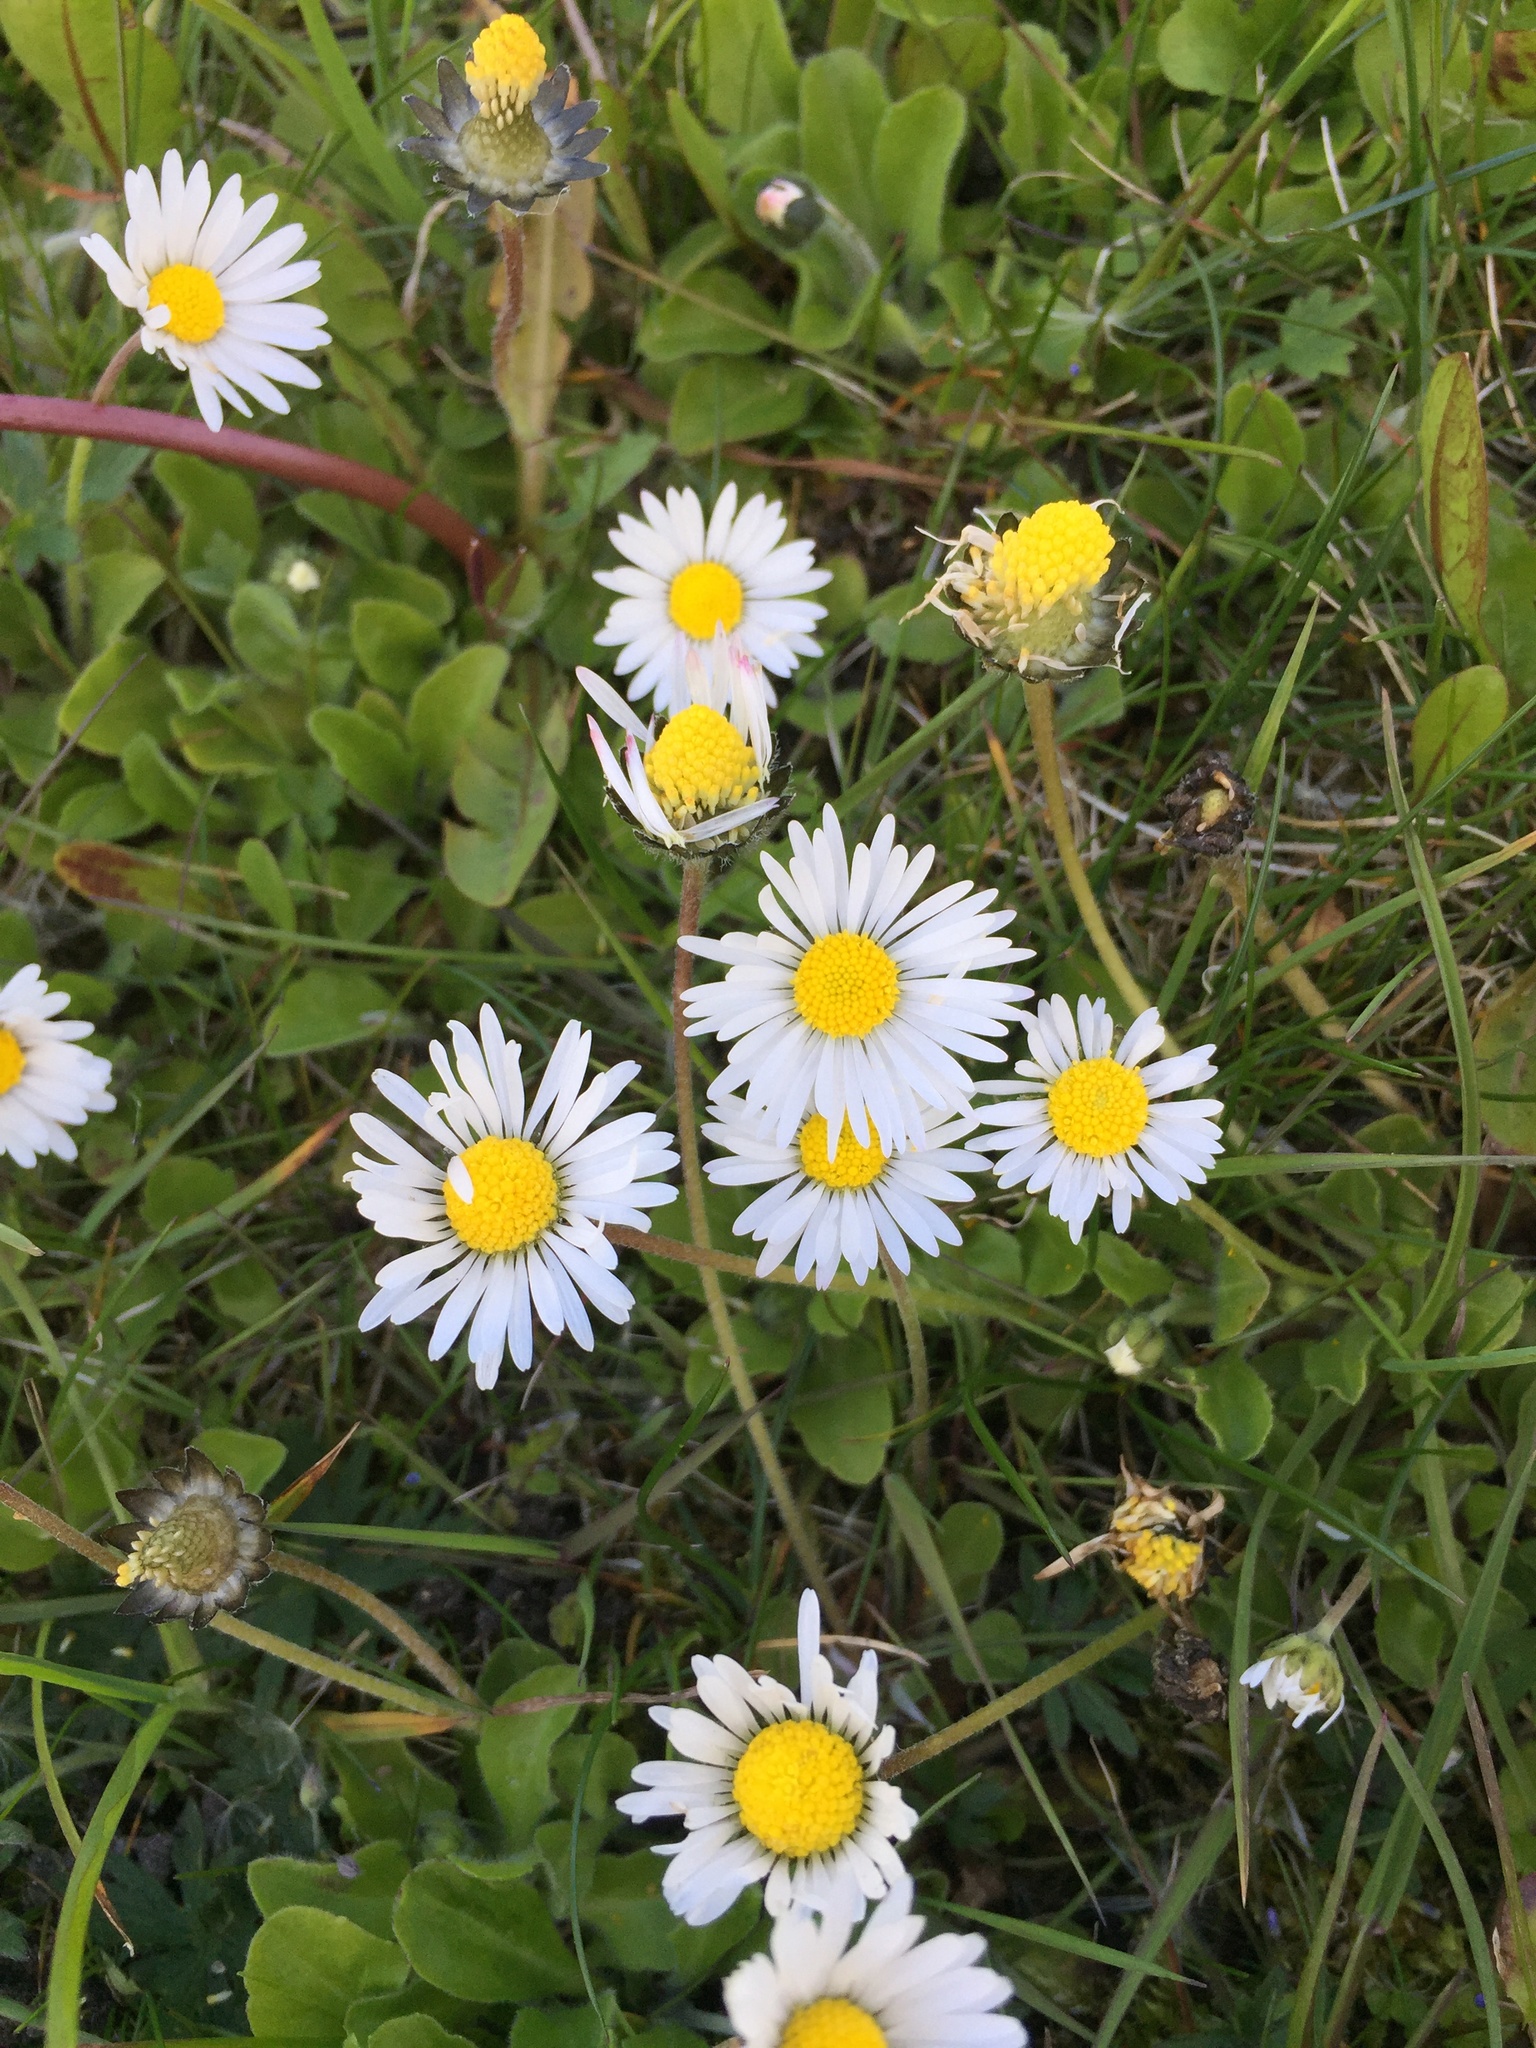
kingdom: Plantae
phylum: Tracheophyta
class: Magnoliopsida
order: Asterales
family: Asteraceae
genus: Bellis
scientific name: Bellis perennis
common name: Lawndaisy
